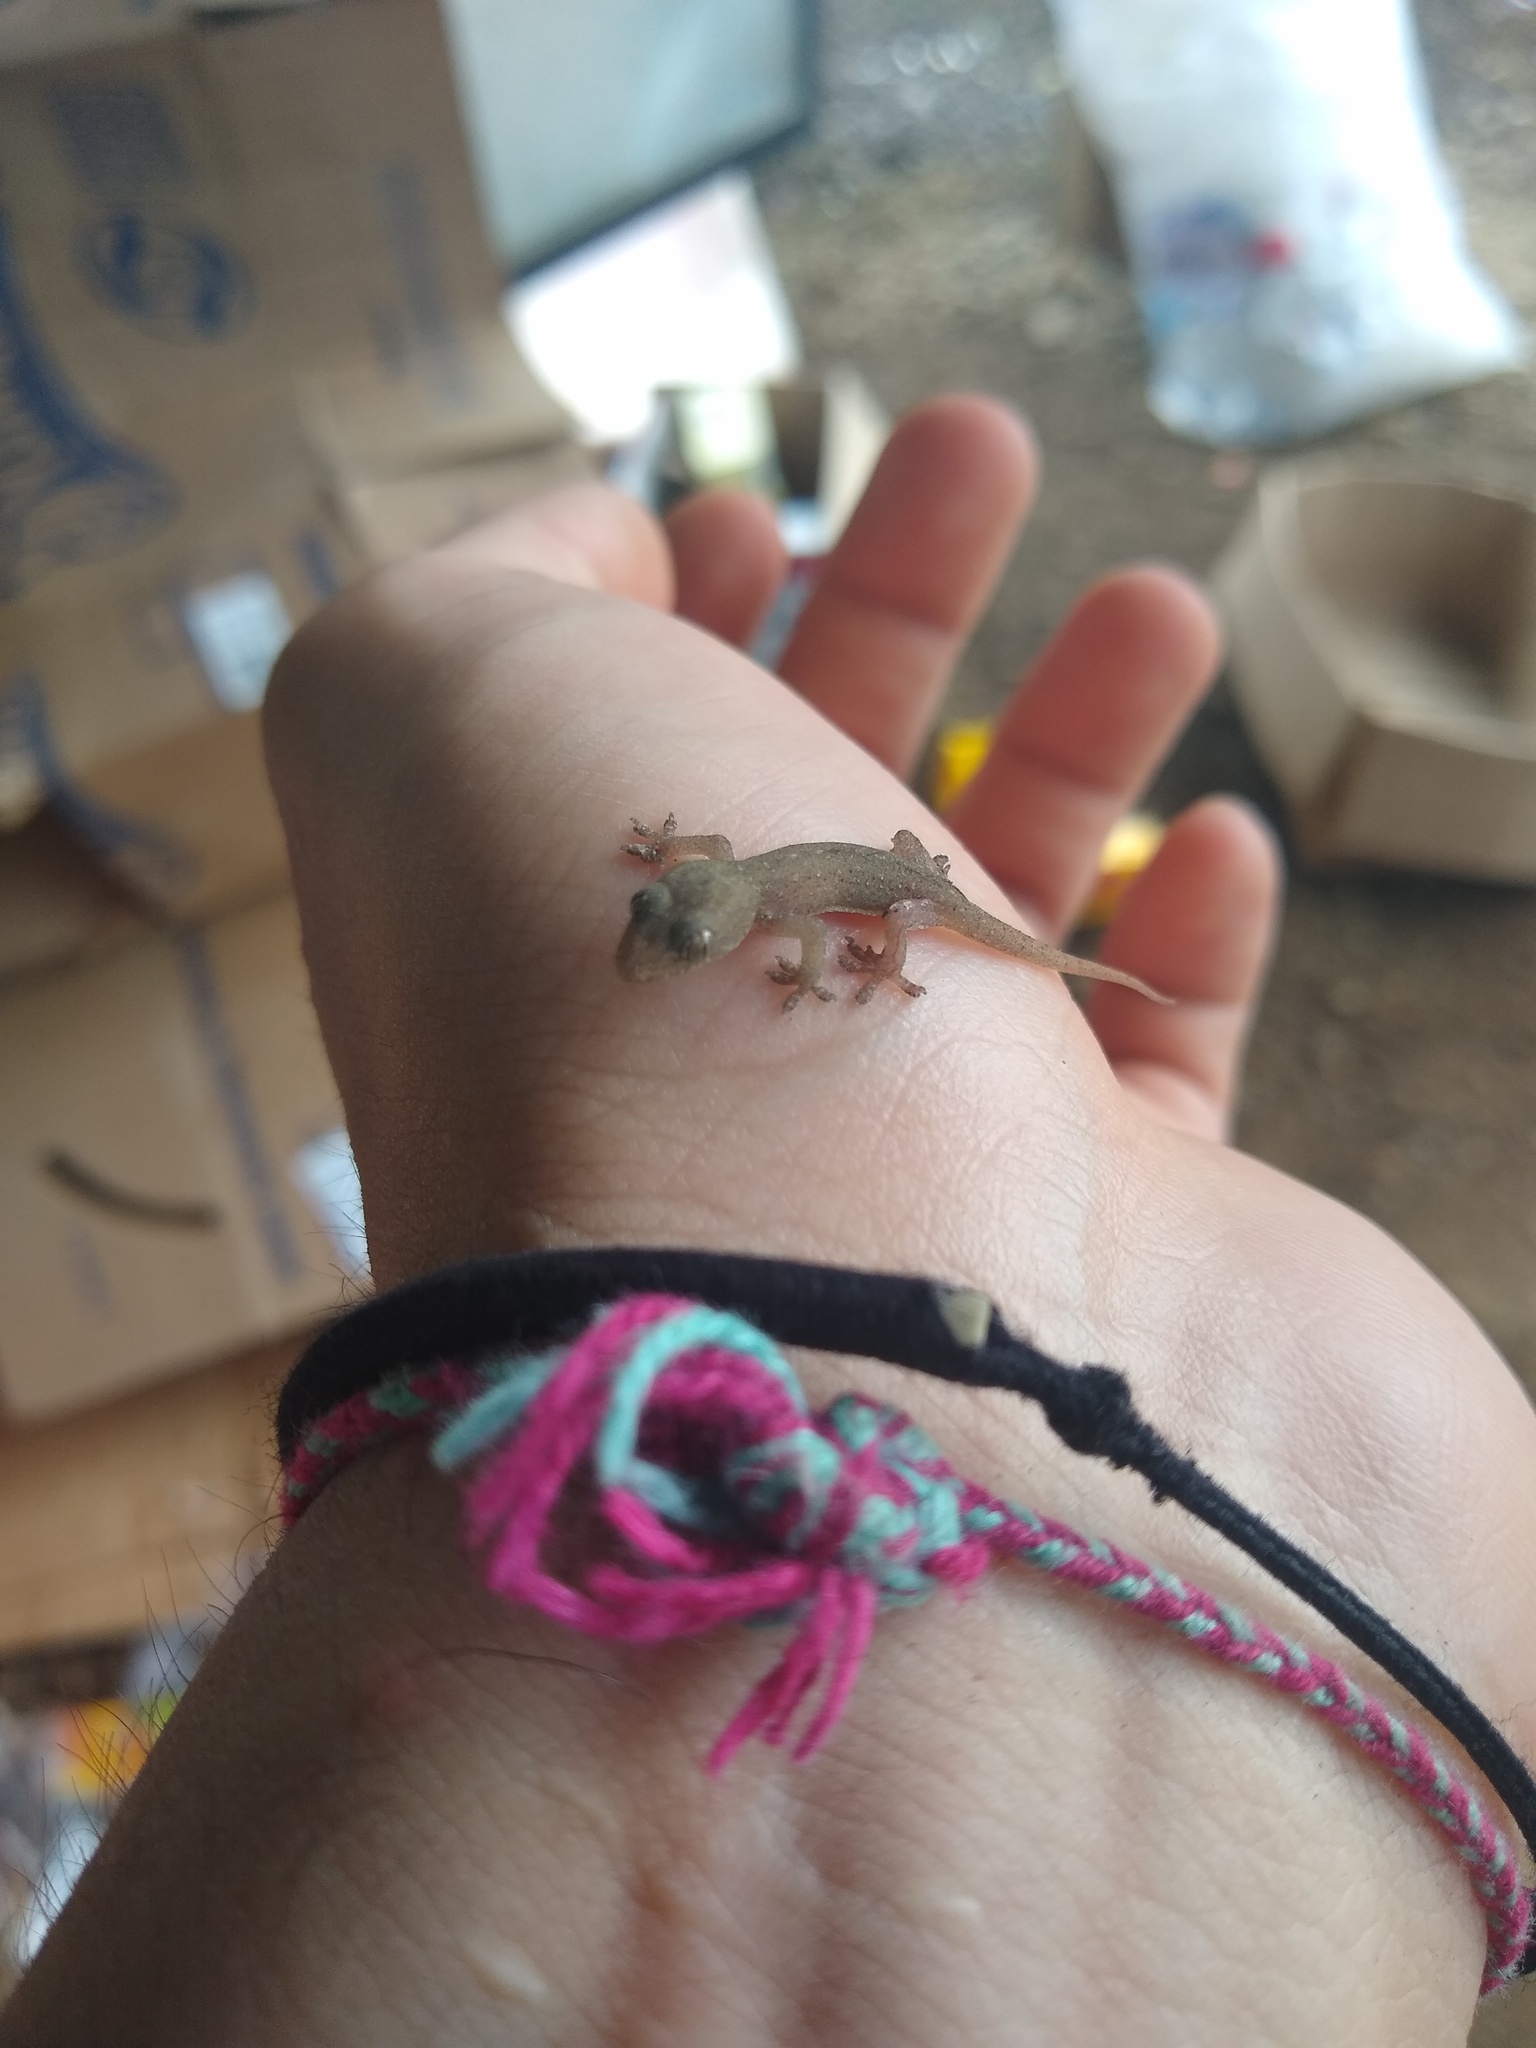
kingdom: Animalia
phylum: Chordata
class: Squamata
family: Gekkonidae
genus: Hemidactylus
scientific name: Hemidactylus frenatus
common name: Common house gecko
